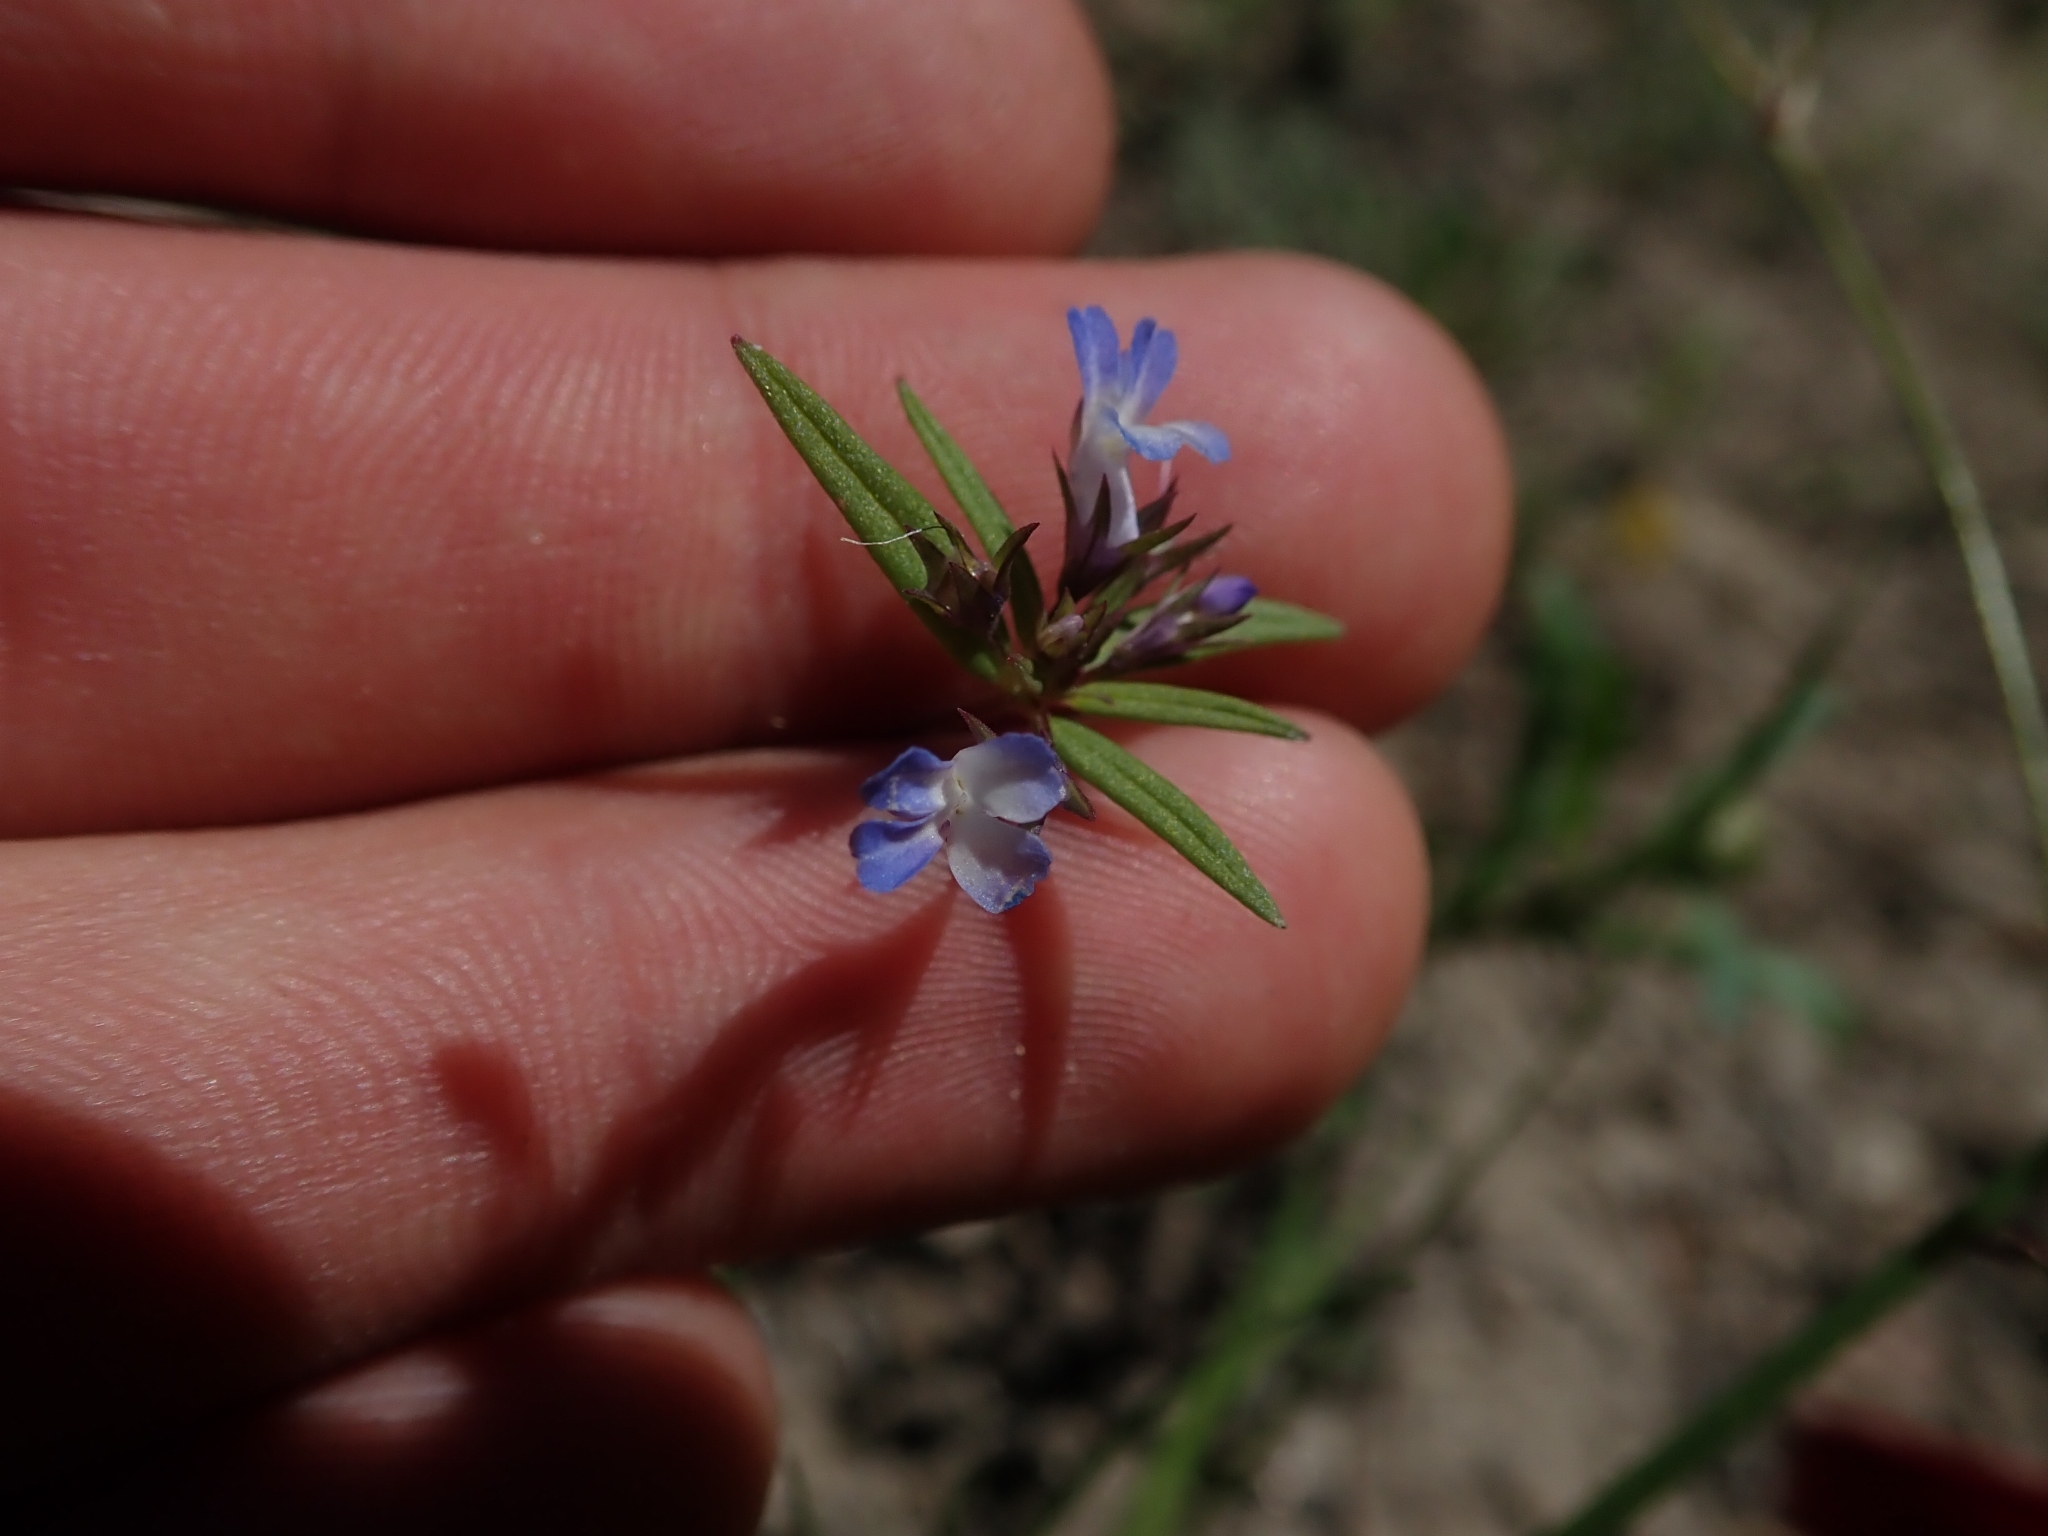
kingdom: Plantae
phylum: Tracheophyta
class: Magnoliopsida
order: Lamiales
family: Plantaginaceae
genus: Collinsia
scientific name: Collinsia parviflora
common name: Blue-lips
